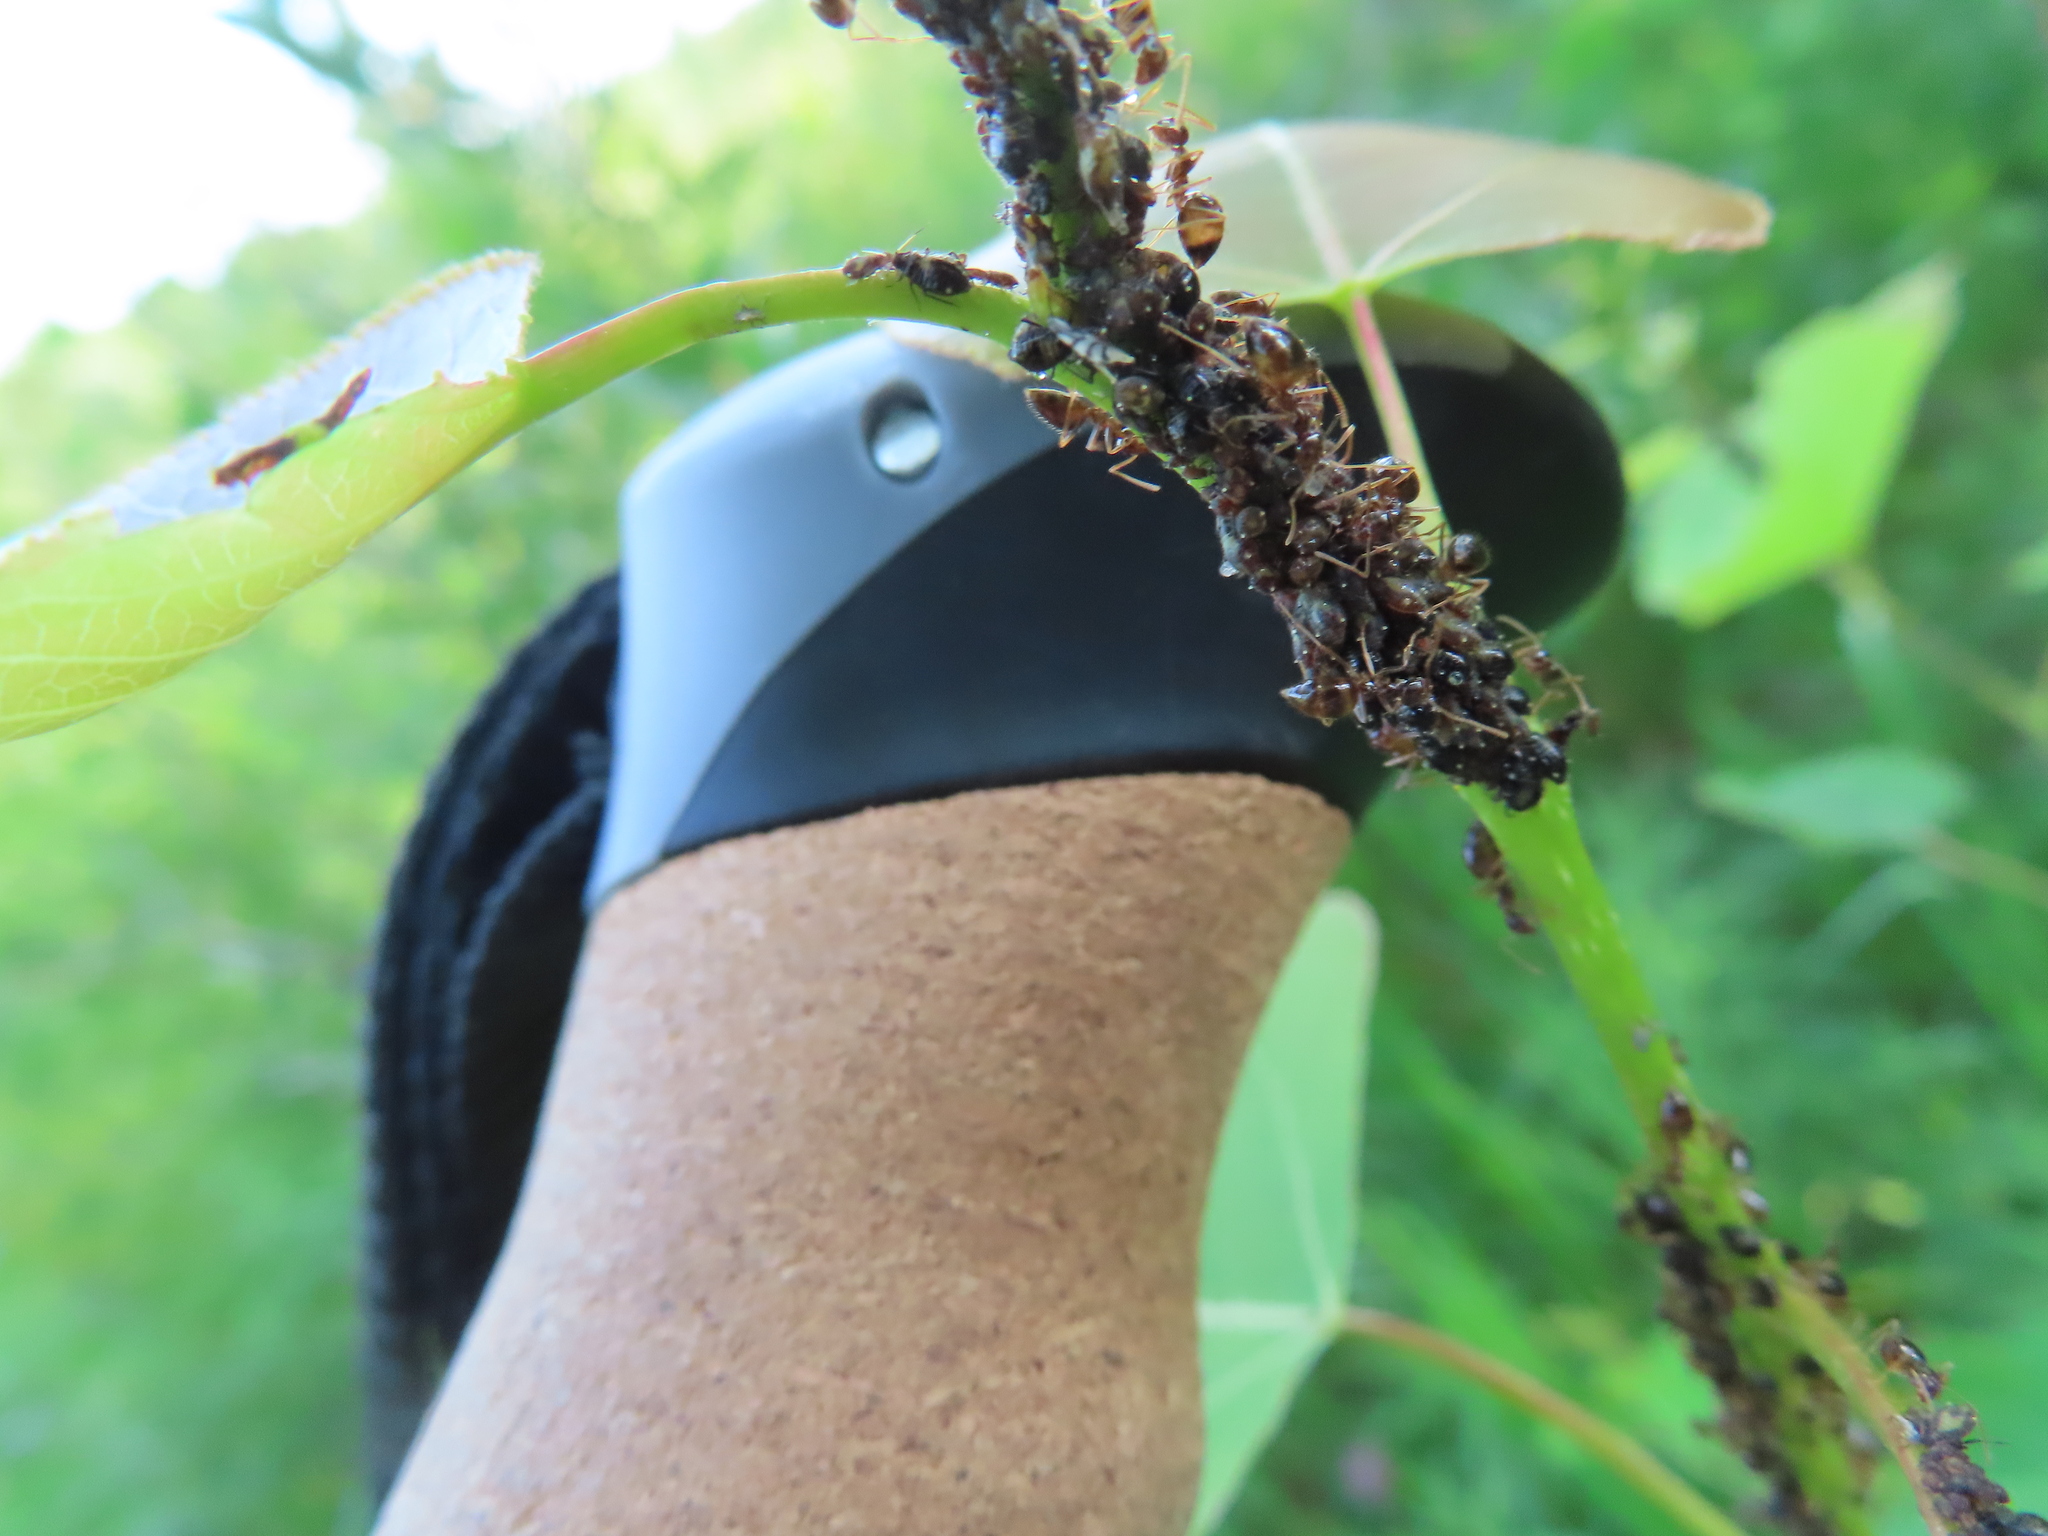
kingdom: Animalia
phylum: Arthropoda
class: Insecta
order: Hymenoptera
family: Formicidae
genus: Prenolepis
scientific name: Prenolepis imparis
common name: Small honey ant
